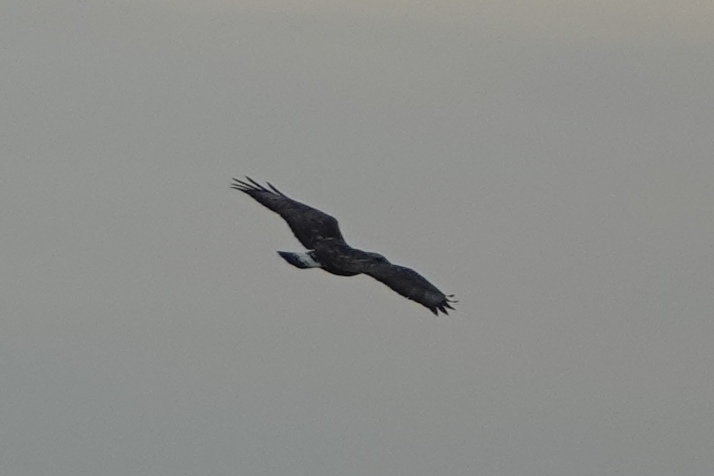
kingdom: Animalia
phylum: Chordata
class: Aves
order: Accipitriformes
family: Accipitridae
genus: Buteo
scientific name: Buteo lagopus
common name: Rough-legged buzzard
